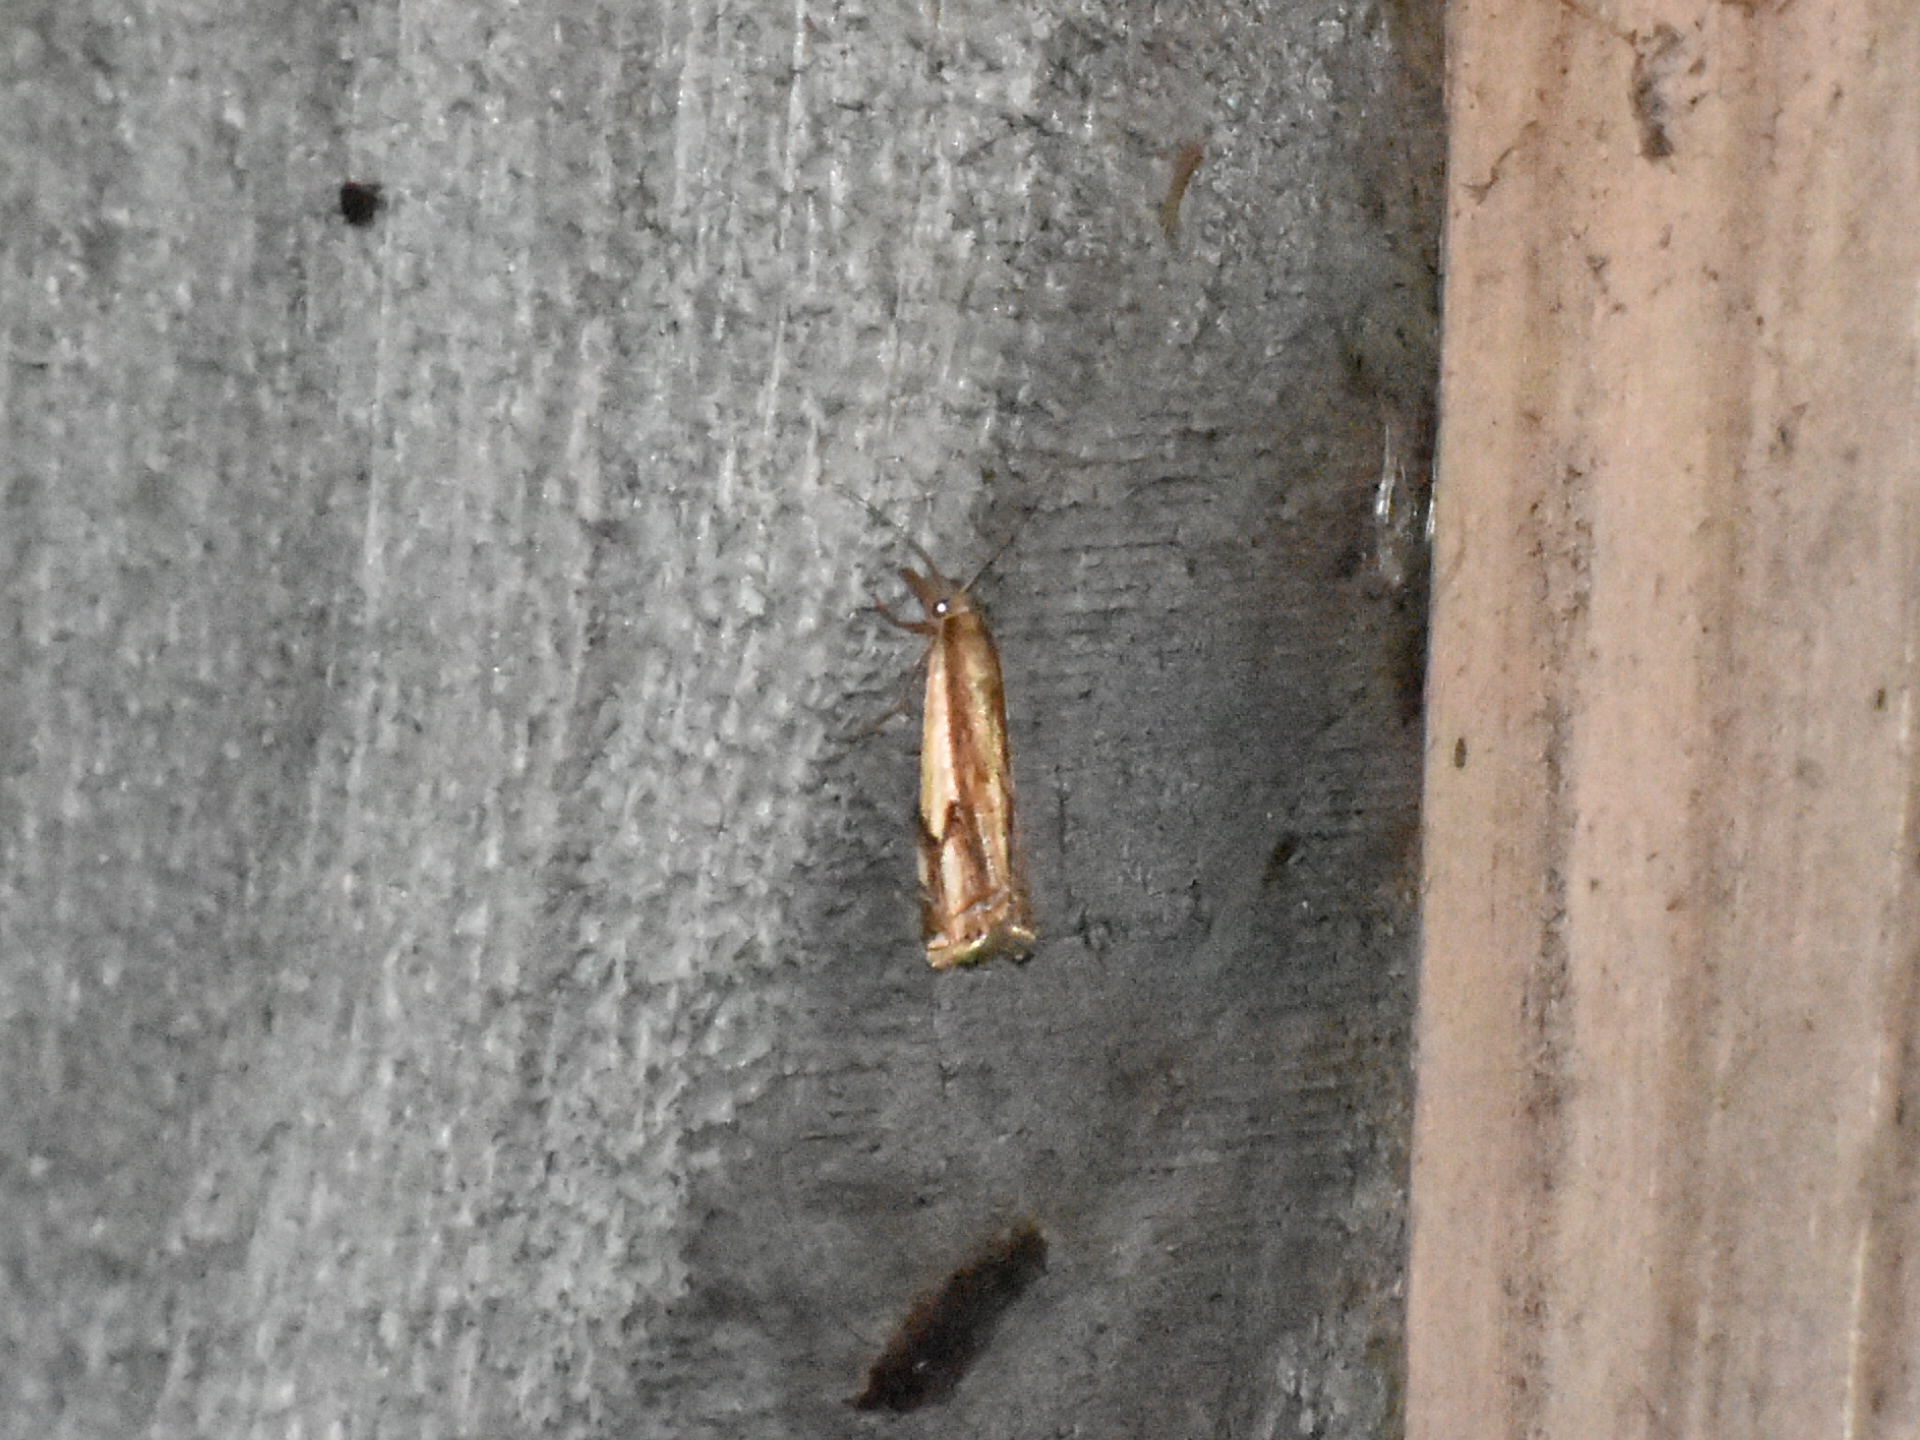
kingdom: Animalia
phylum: Arthropoda
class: Insecta
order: Lepidoptera
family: Crambidae
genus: Crambus
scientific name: Crambus agitatellus
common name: Double-banded grass-veneer
